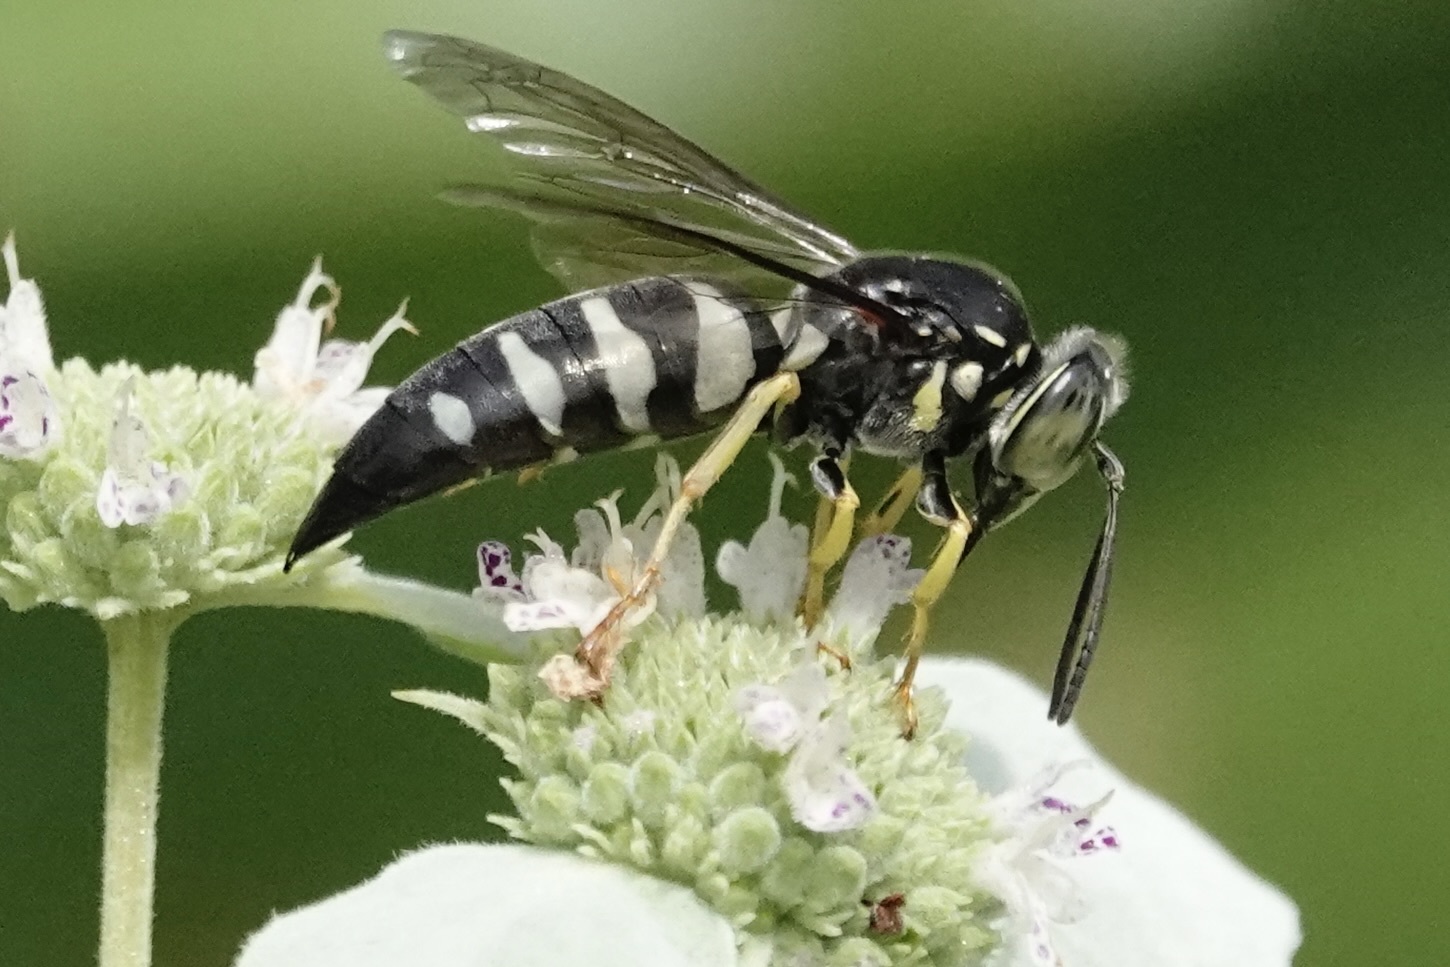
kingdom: Animalia
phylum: Arthropoda
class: Insecta
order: Hymenoptera
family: Crabronidae
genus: Bicyrtes
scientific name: Bicyrtes quadrifasciatus
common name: Four-banded stink bug hunter wasp
